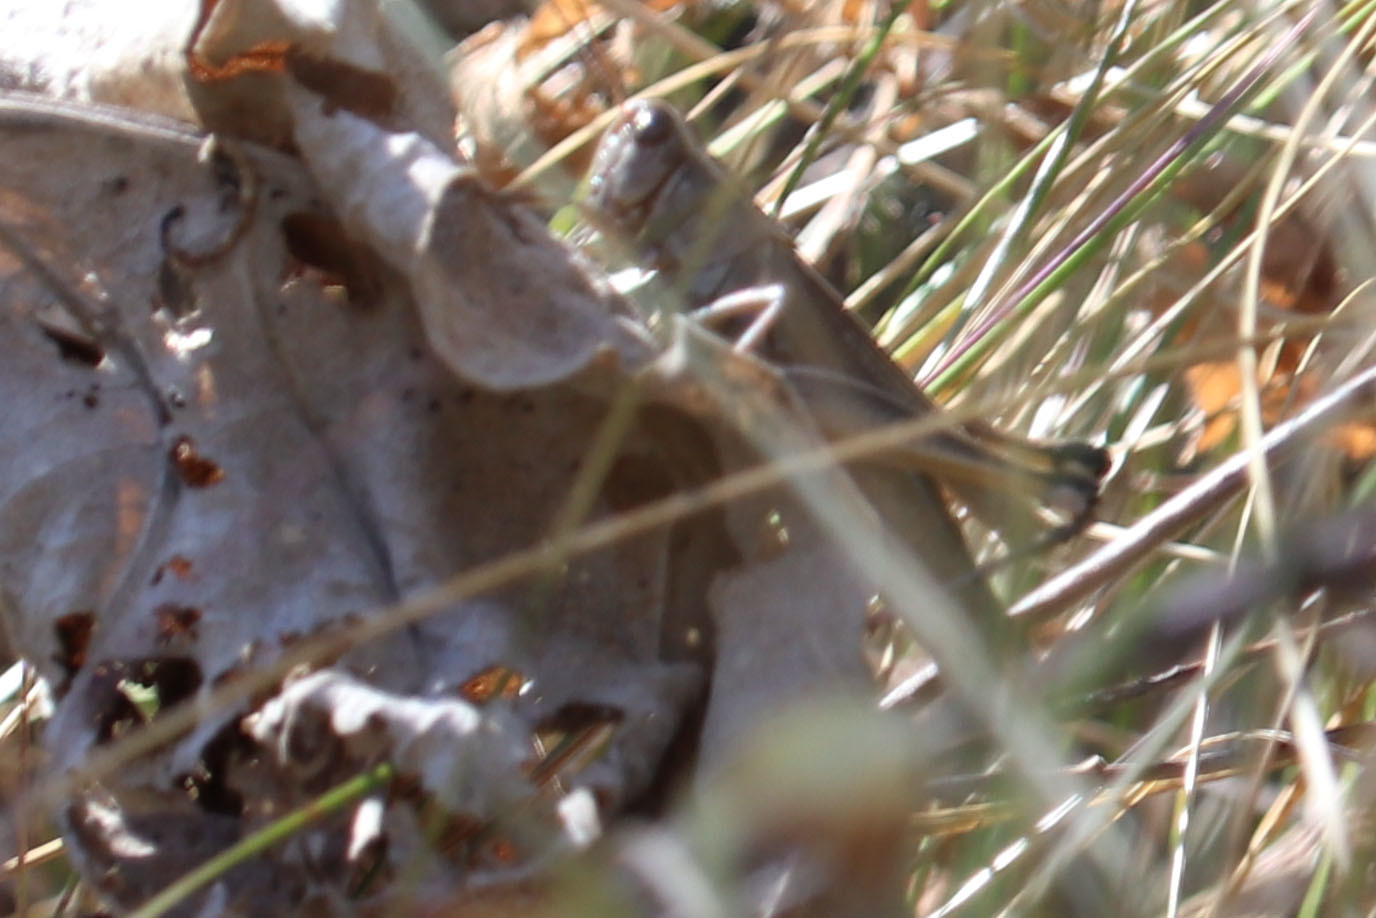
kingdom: Animalia
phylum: Arthropoda
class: Insecta
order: Orthoptera
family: Acrididae
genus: Melanoplus
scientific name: Melanoplus bivittatus
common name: Two-striped grasshopper
